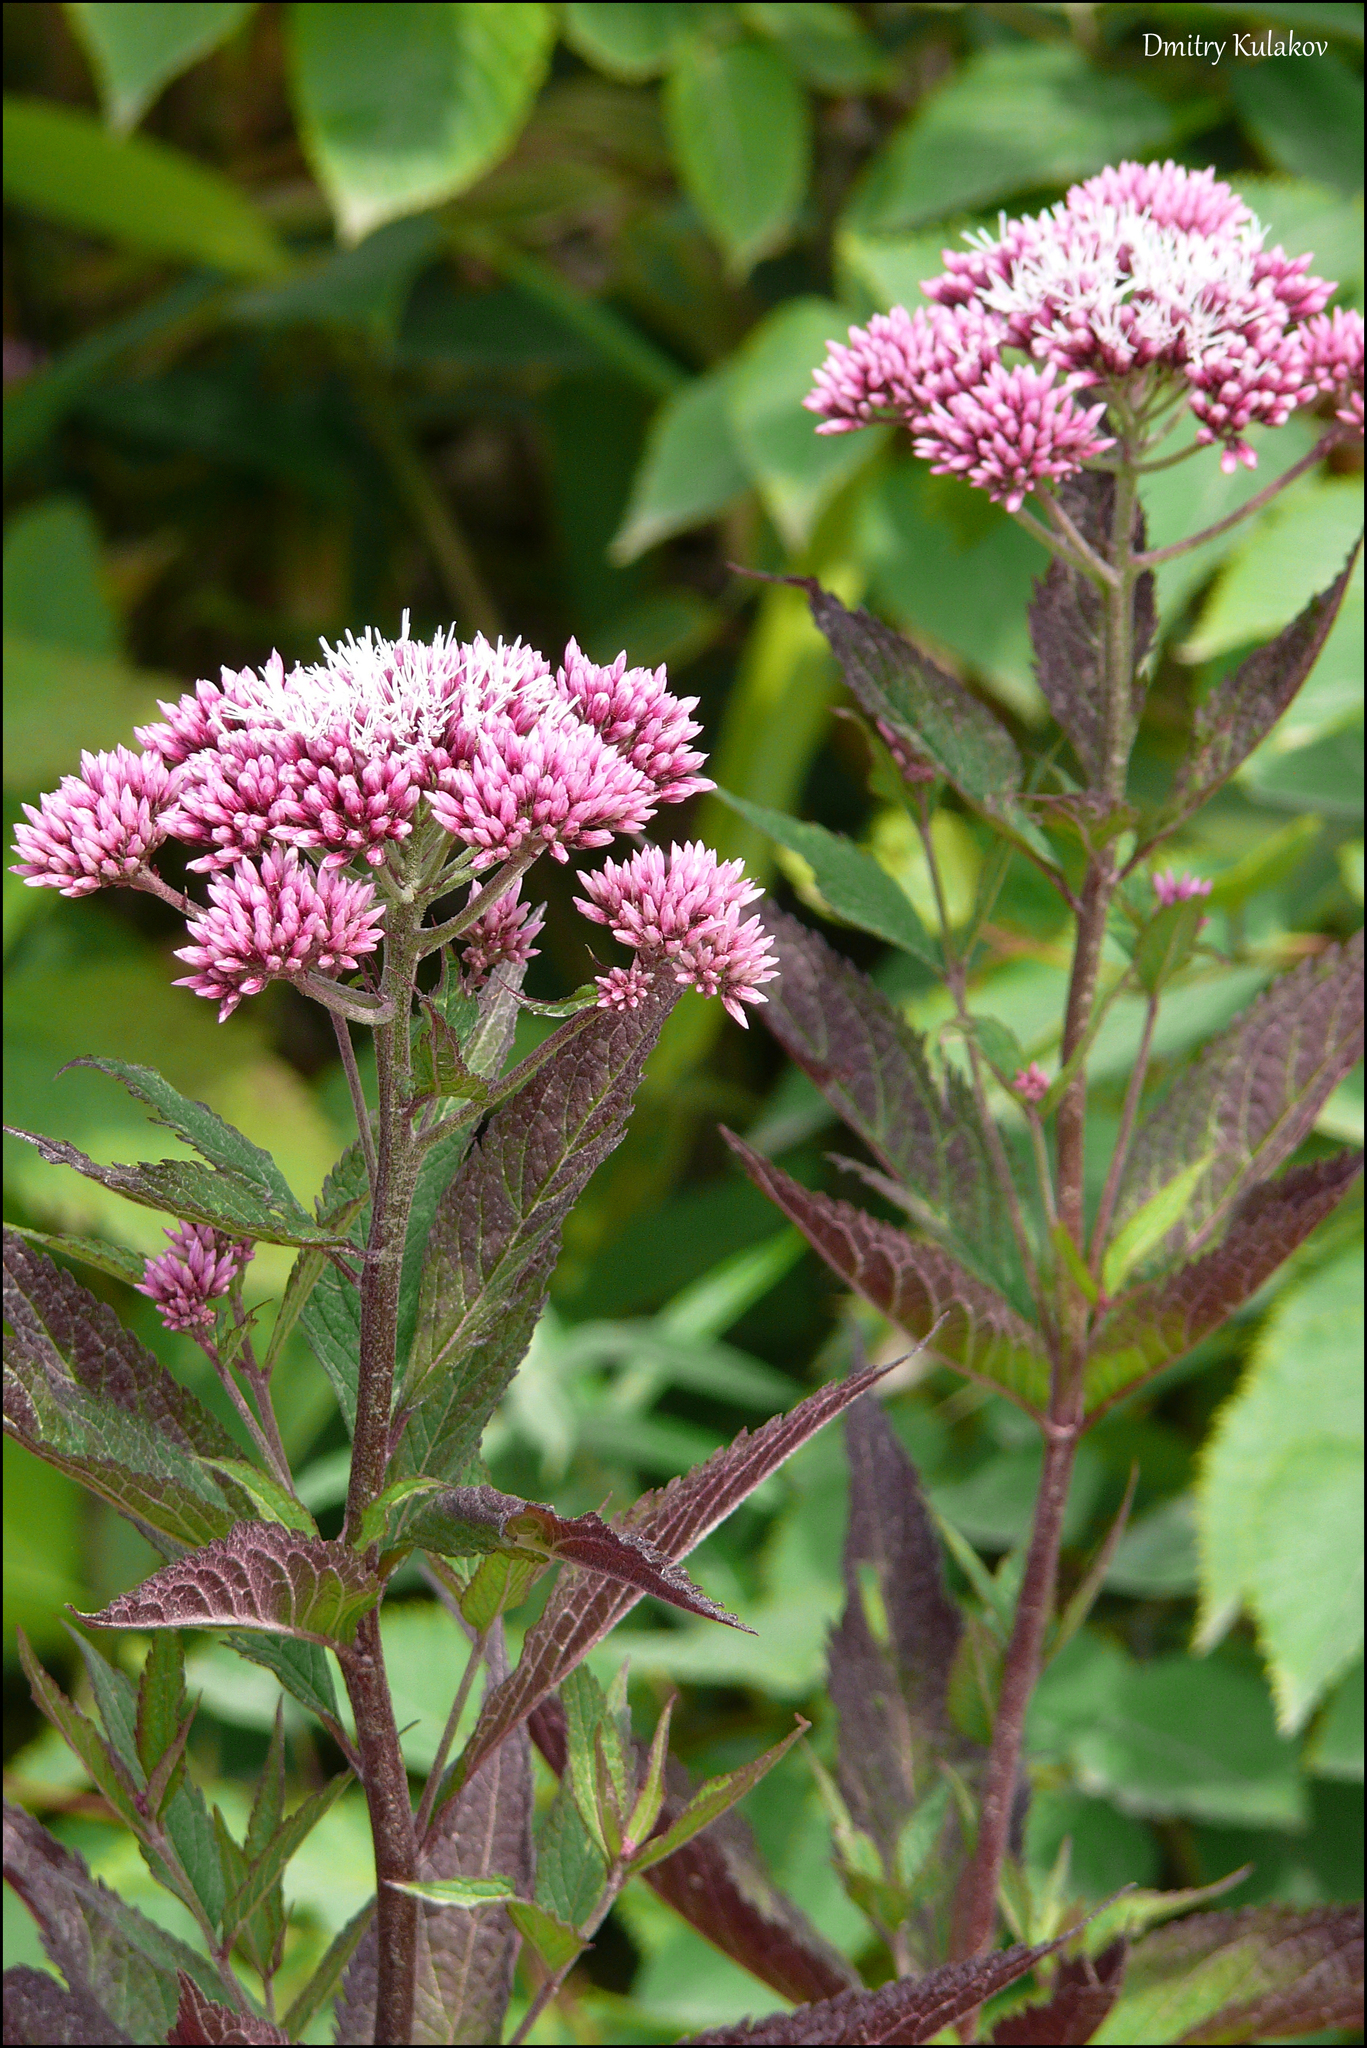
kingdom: Plantae
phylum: Tracheophyta
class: Magnoliopsida
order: Asterales
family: Asteraceae
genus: Eupatorium
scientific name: Eupatorium glehnii
